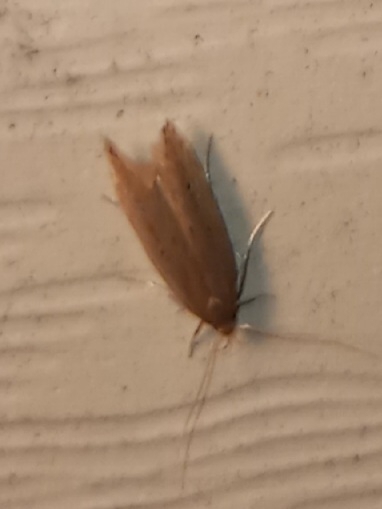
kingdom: Animalia
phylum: Arthropoda
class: Insecta
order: Lepidoptera
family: Cosmopterigidae
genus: Limnaecia
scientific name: Limnaecia phragmitella
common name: Bulrush cosmet
